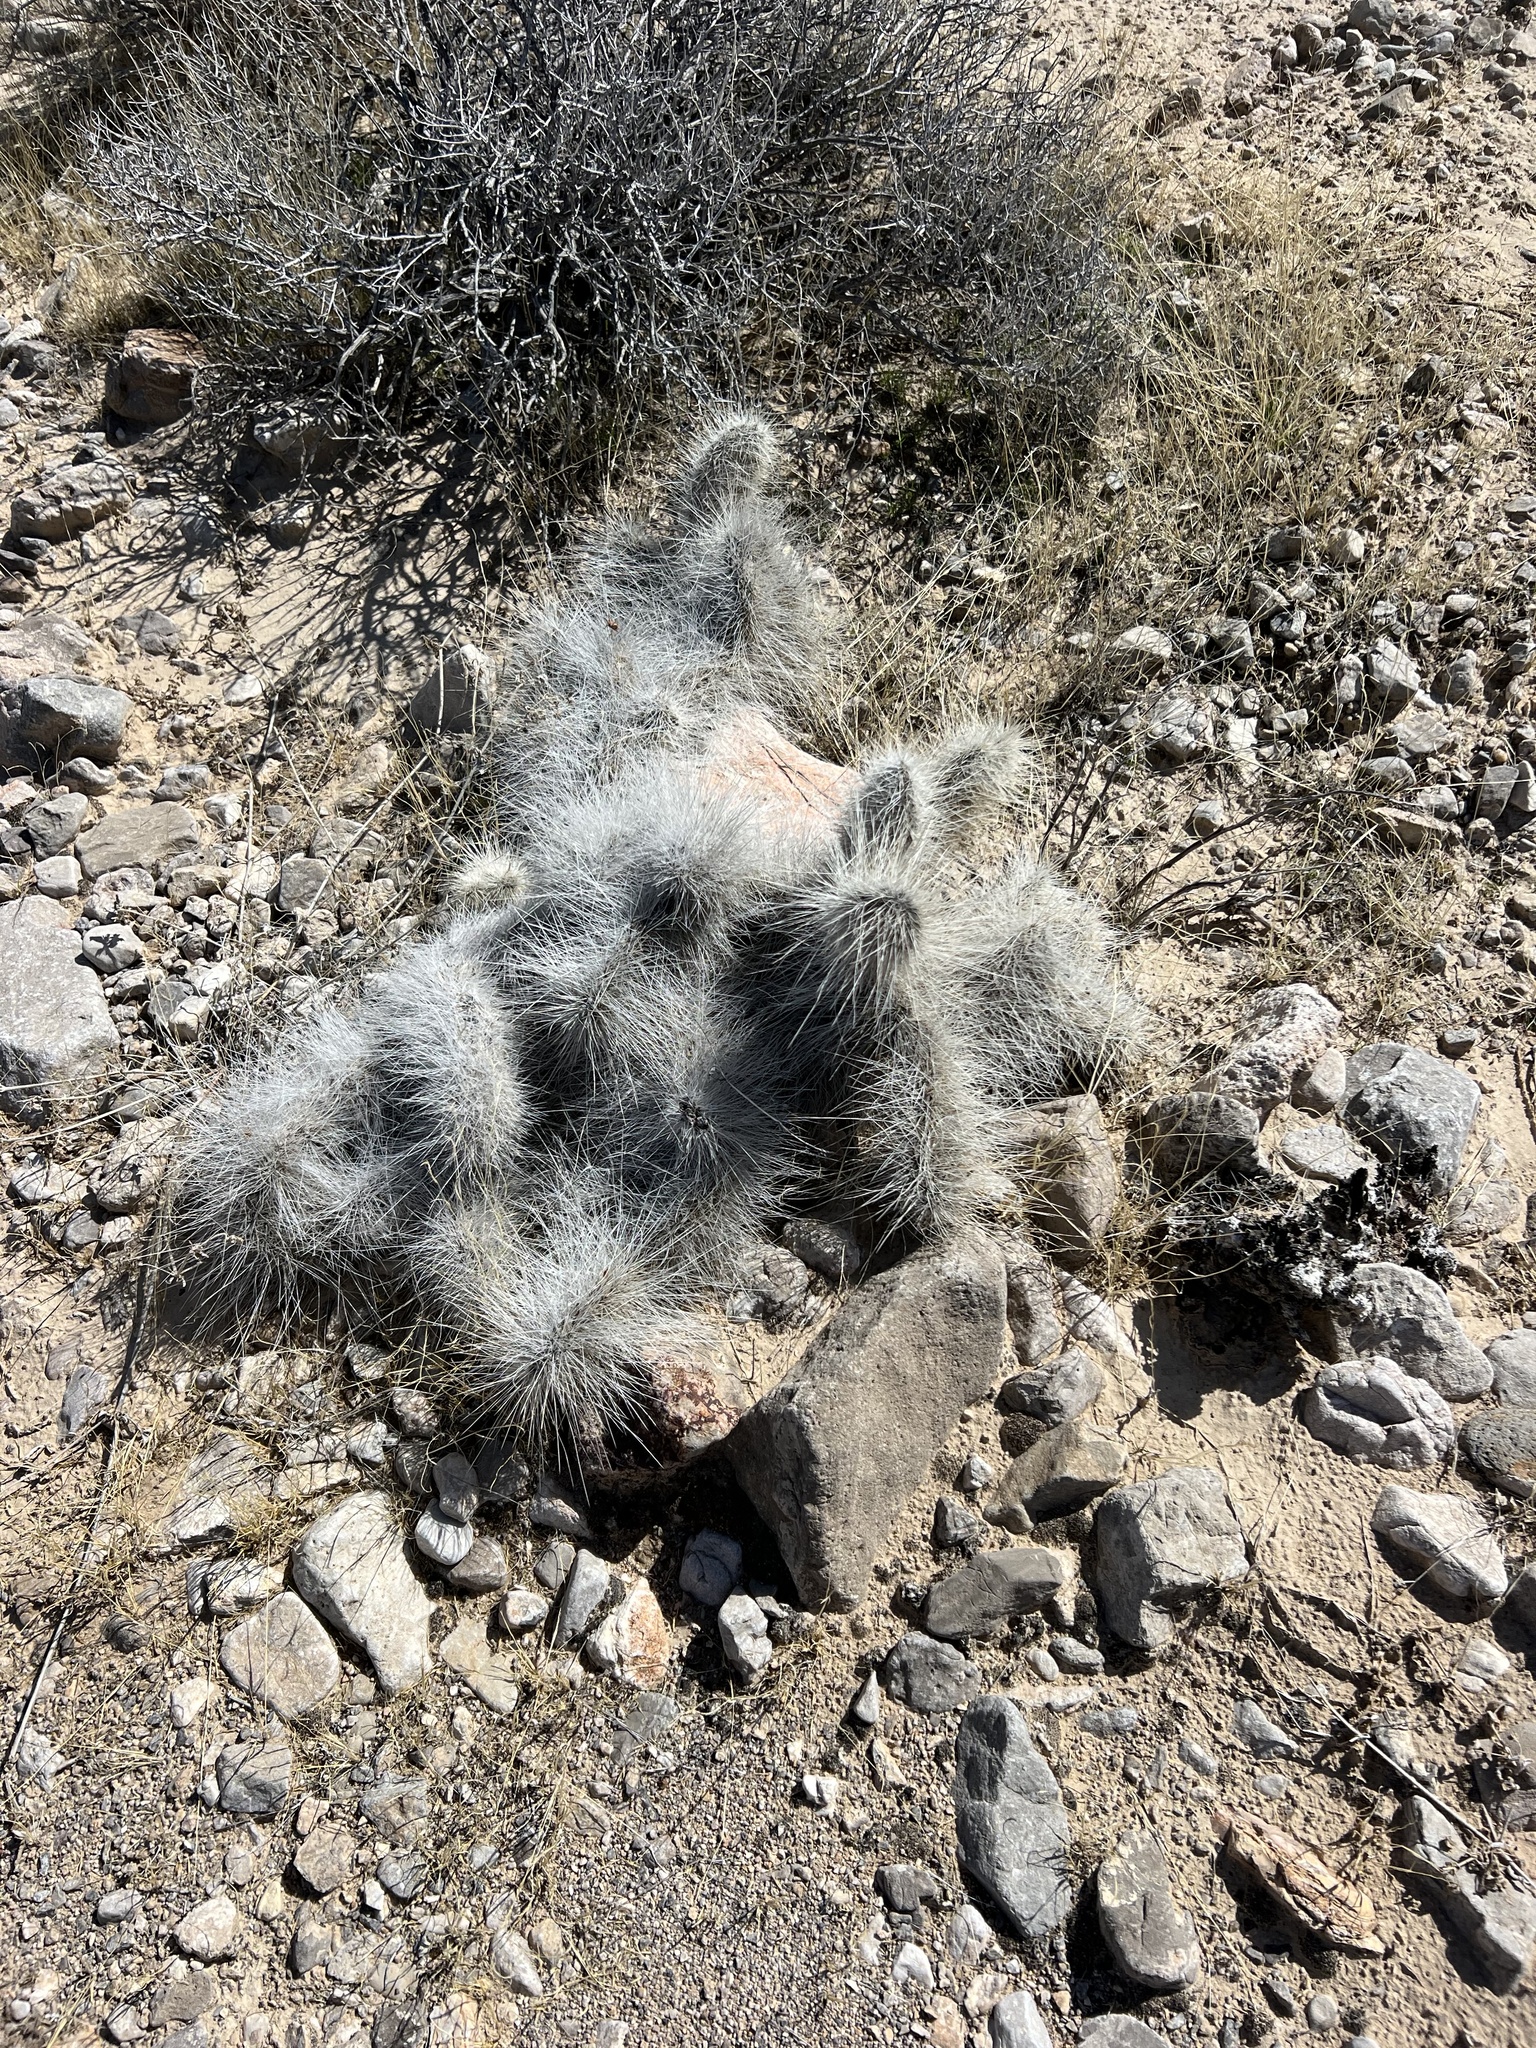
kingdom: Plantae
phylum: Tracheophyta
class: Magnoliopsida
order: Caryophyllales
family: Cactaceae
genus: Opuntia
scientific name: Opuntia polyacantha
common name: Plains prickly-pear
